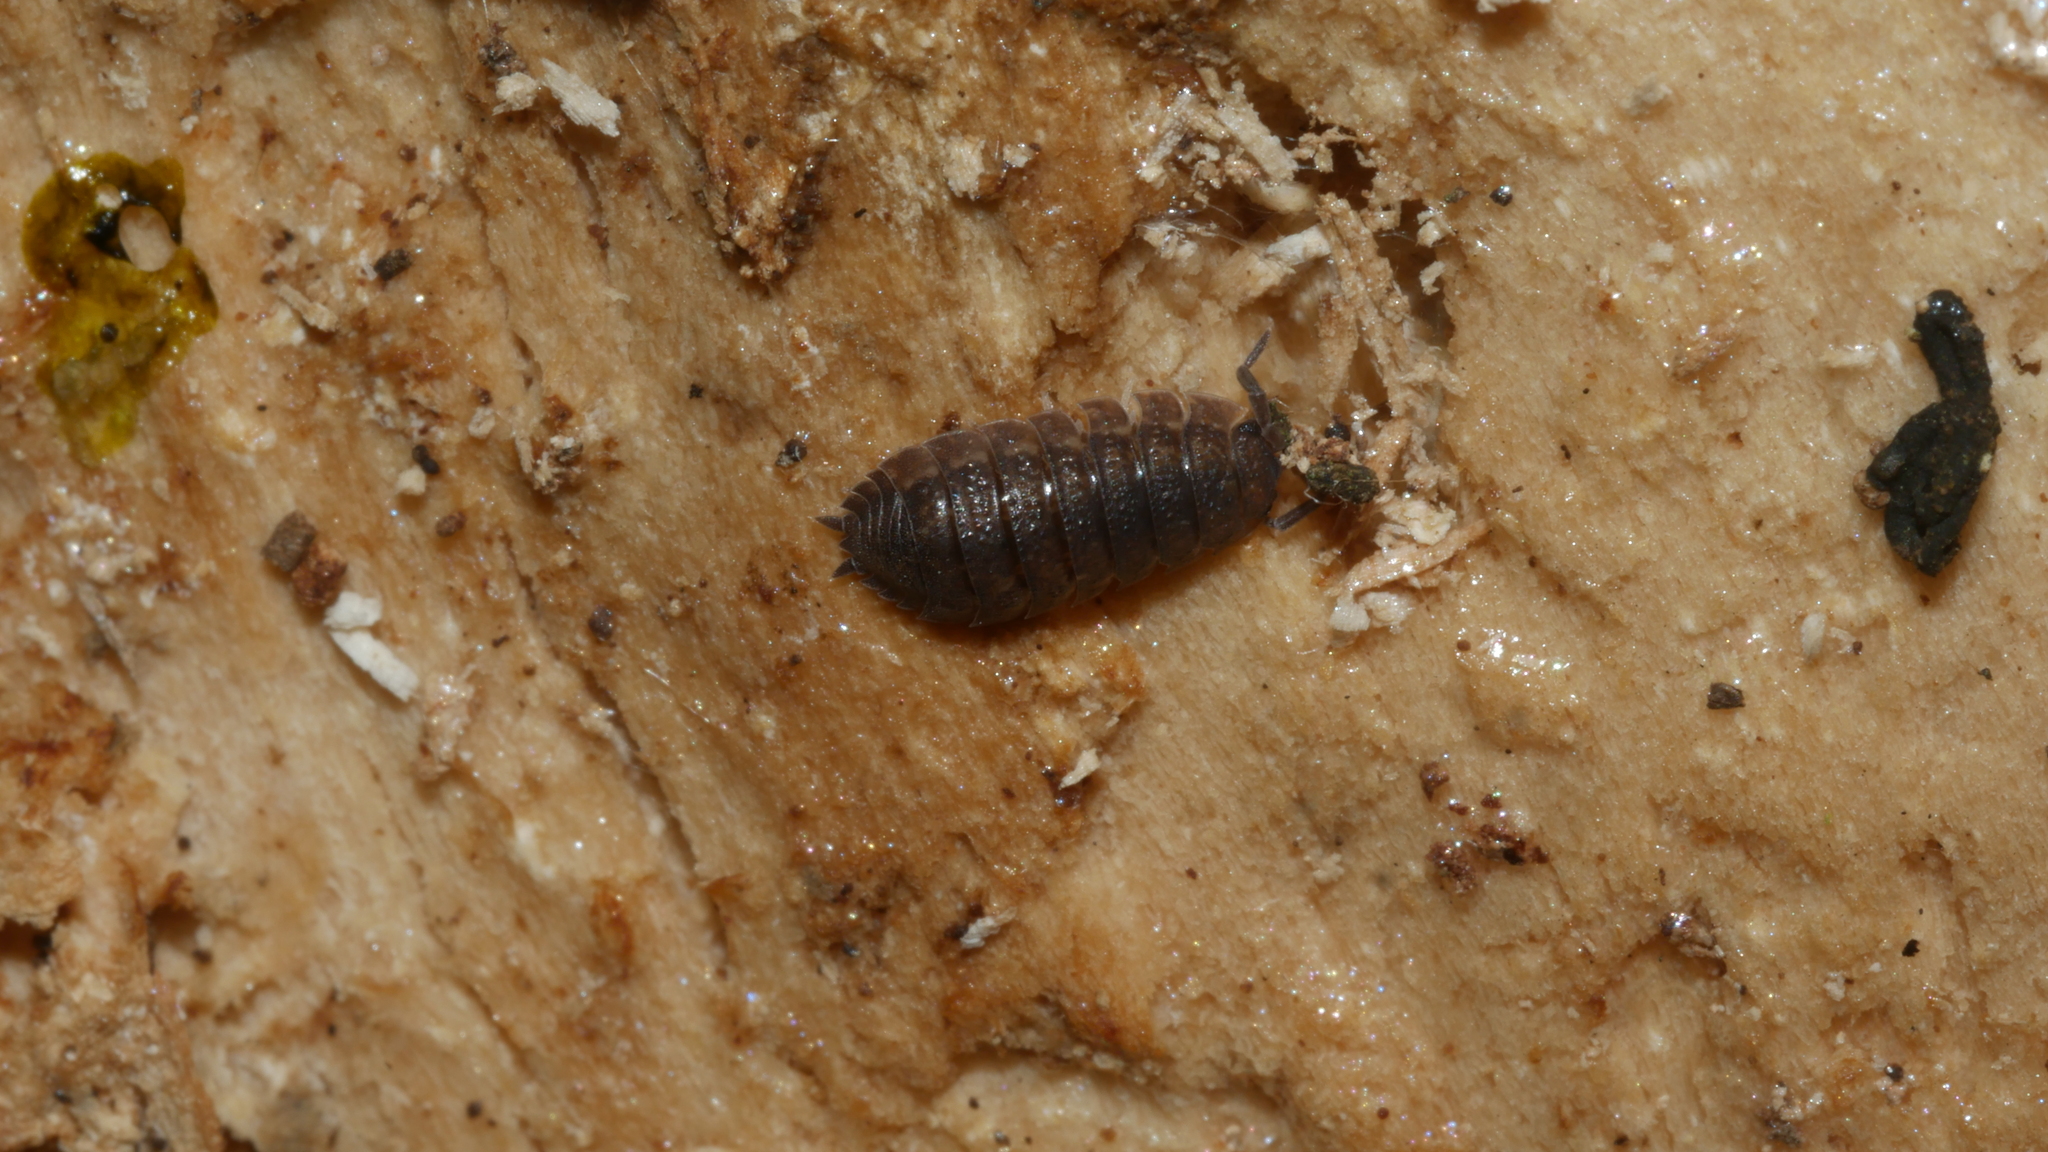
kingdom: Animalia
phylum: Arthropoda
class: Malacostraca
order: Isopoda
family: Porcellionidae
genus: Porcellio
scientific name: Porcellio scaber
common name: Common rough woodlouse
